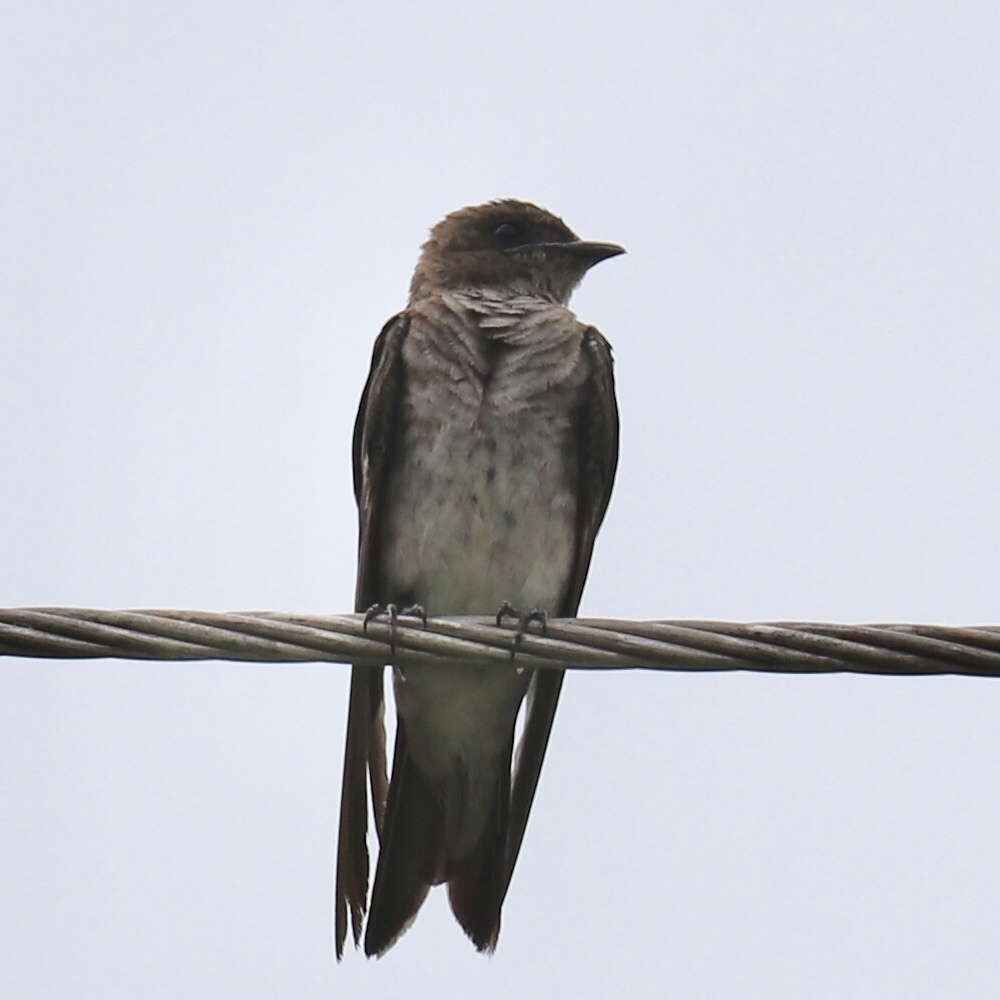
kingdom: Animalia
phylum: Chordata
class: Aves
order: Passeriformes
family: Hirundinidae
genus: Progne
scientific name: Progne chalybea
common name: Grey-breasted martin
